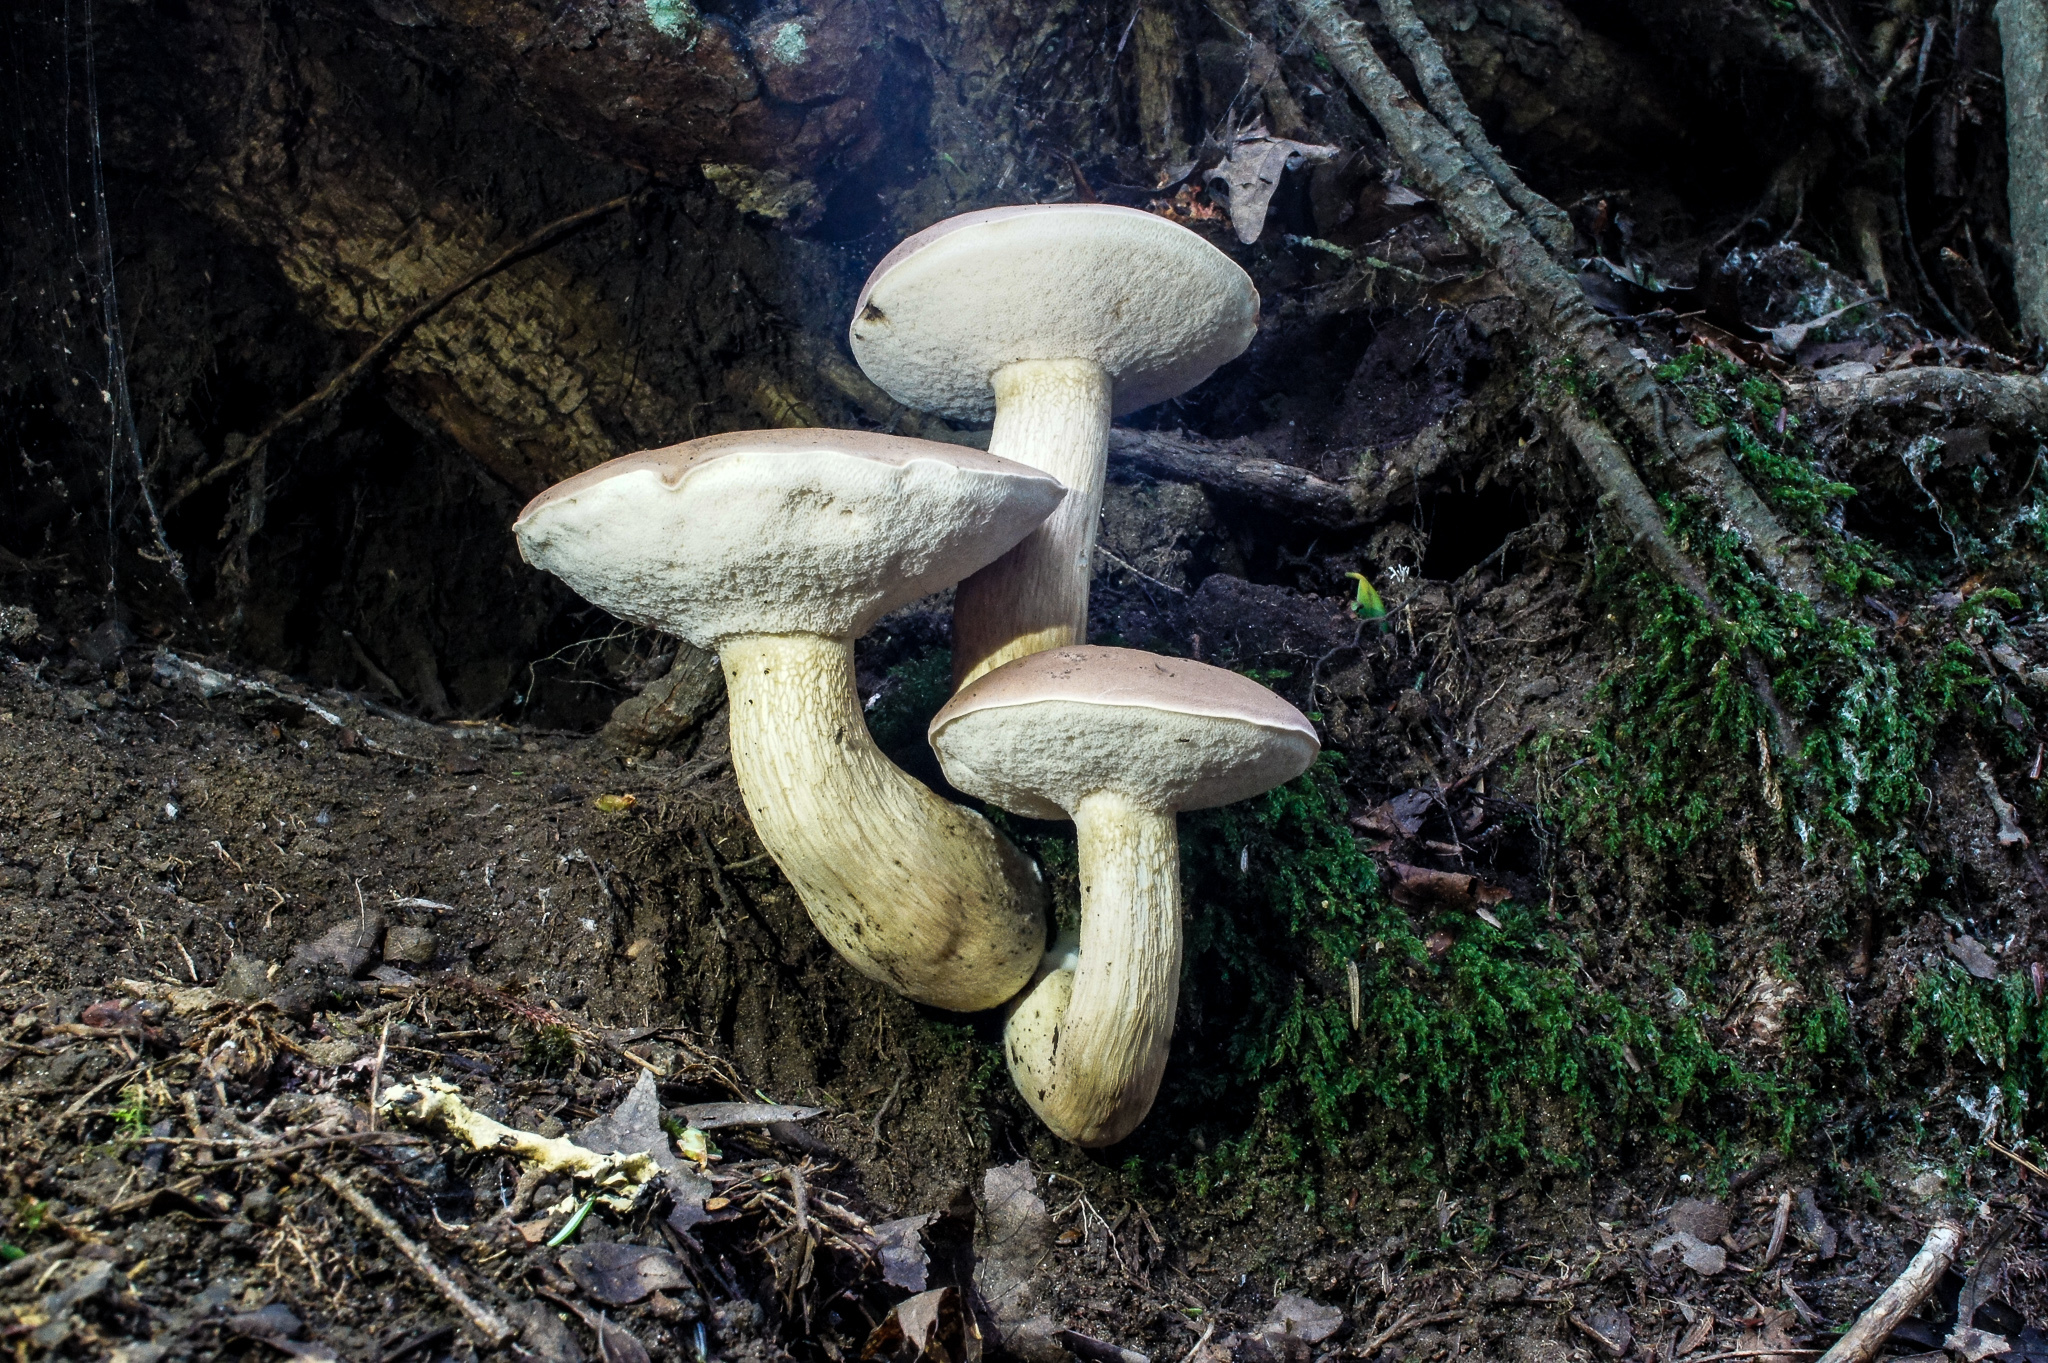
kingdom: Fungi
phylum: Basidiomycota
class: Agaricomycetes
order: Boletales
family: Boletaceae
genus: Tylopilus
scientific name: Tylopilus felleus
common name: Bitter bolete
